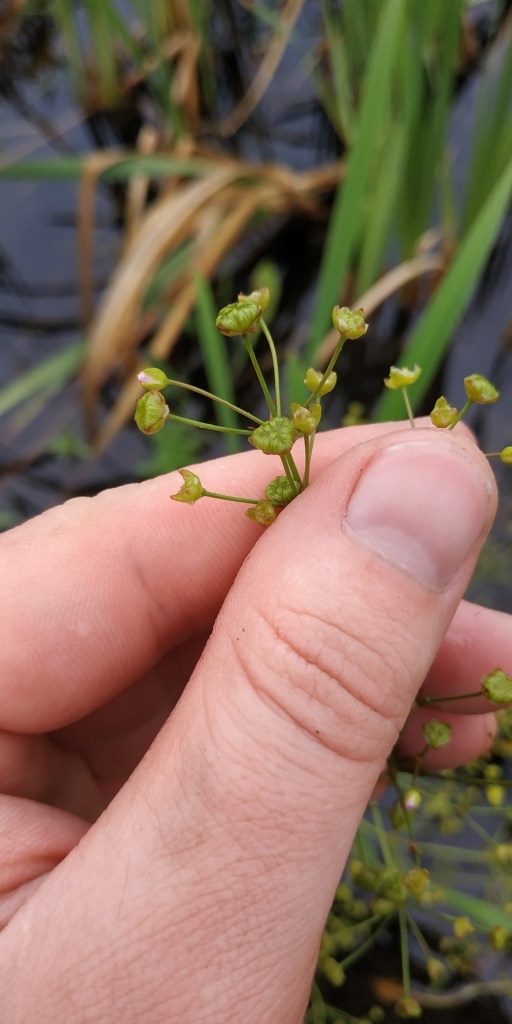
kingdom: Plantae
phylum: Tracheophyta
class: Liliopsida
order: Alismatales
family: Alismataceae
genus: Alisma
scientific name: Alisma plantago-aquatica
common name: Water-plantain
